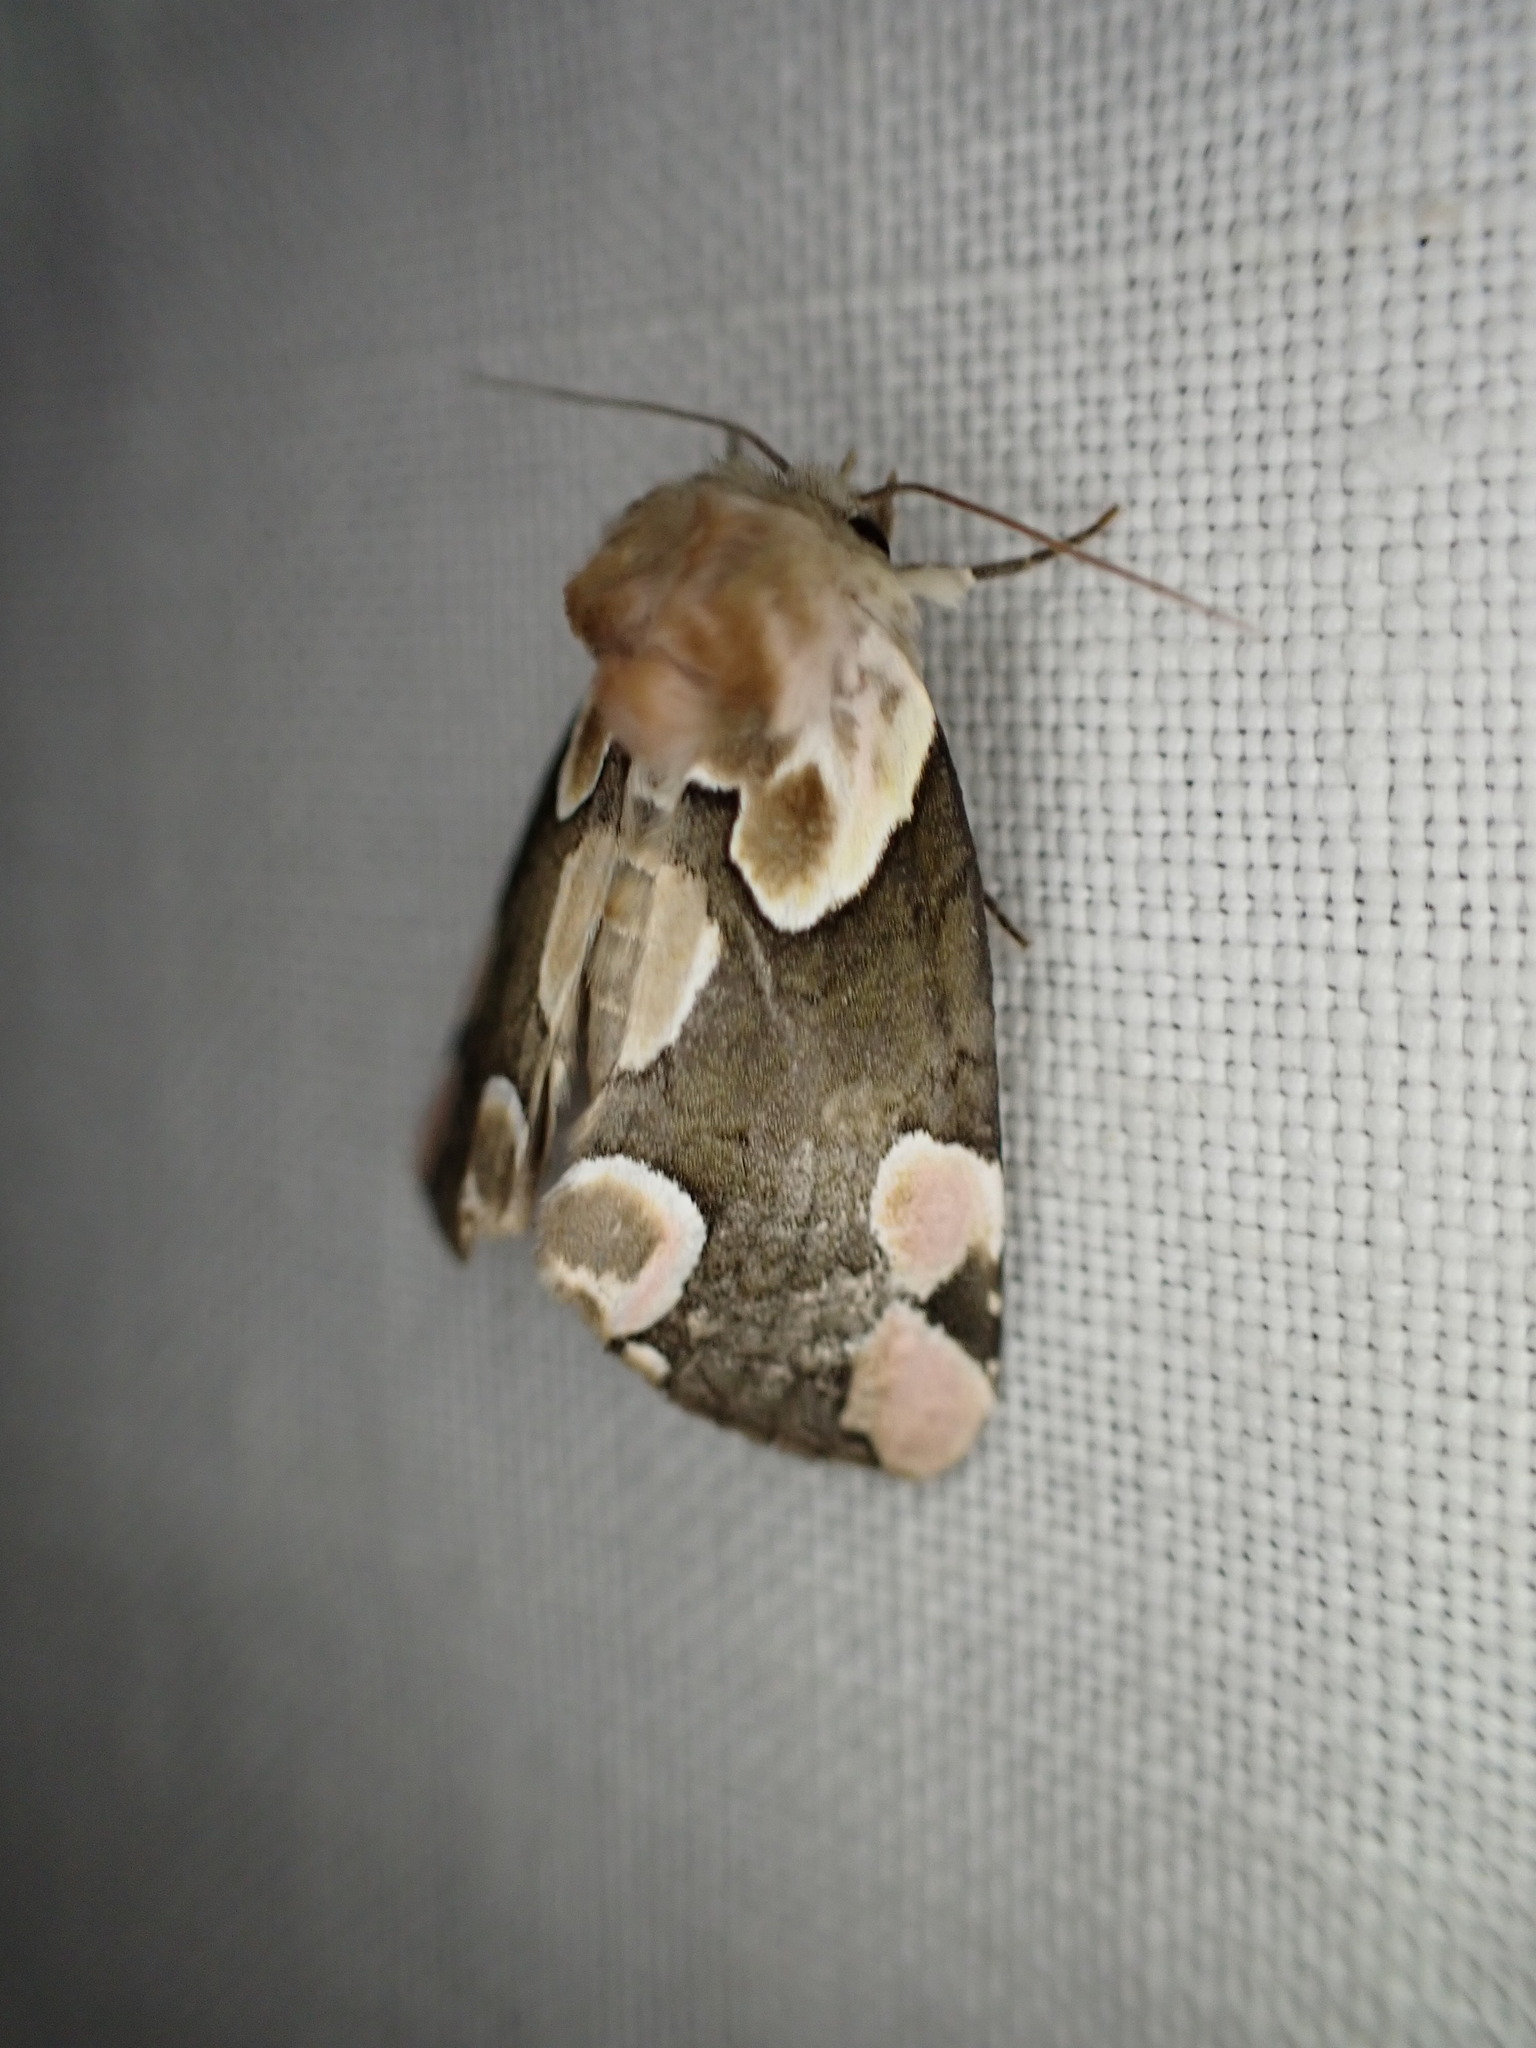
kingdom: Animalia
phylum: Arthropoda
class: Insecta
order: Lepidoptera
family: Drepanidae
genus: Thyatira
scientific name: Thyatira batis
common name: Peach blossom
